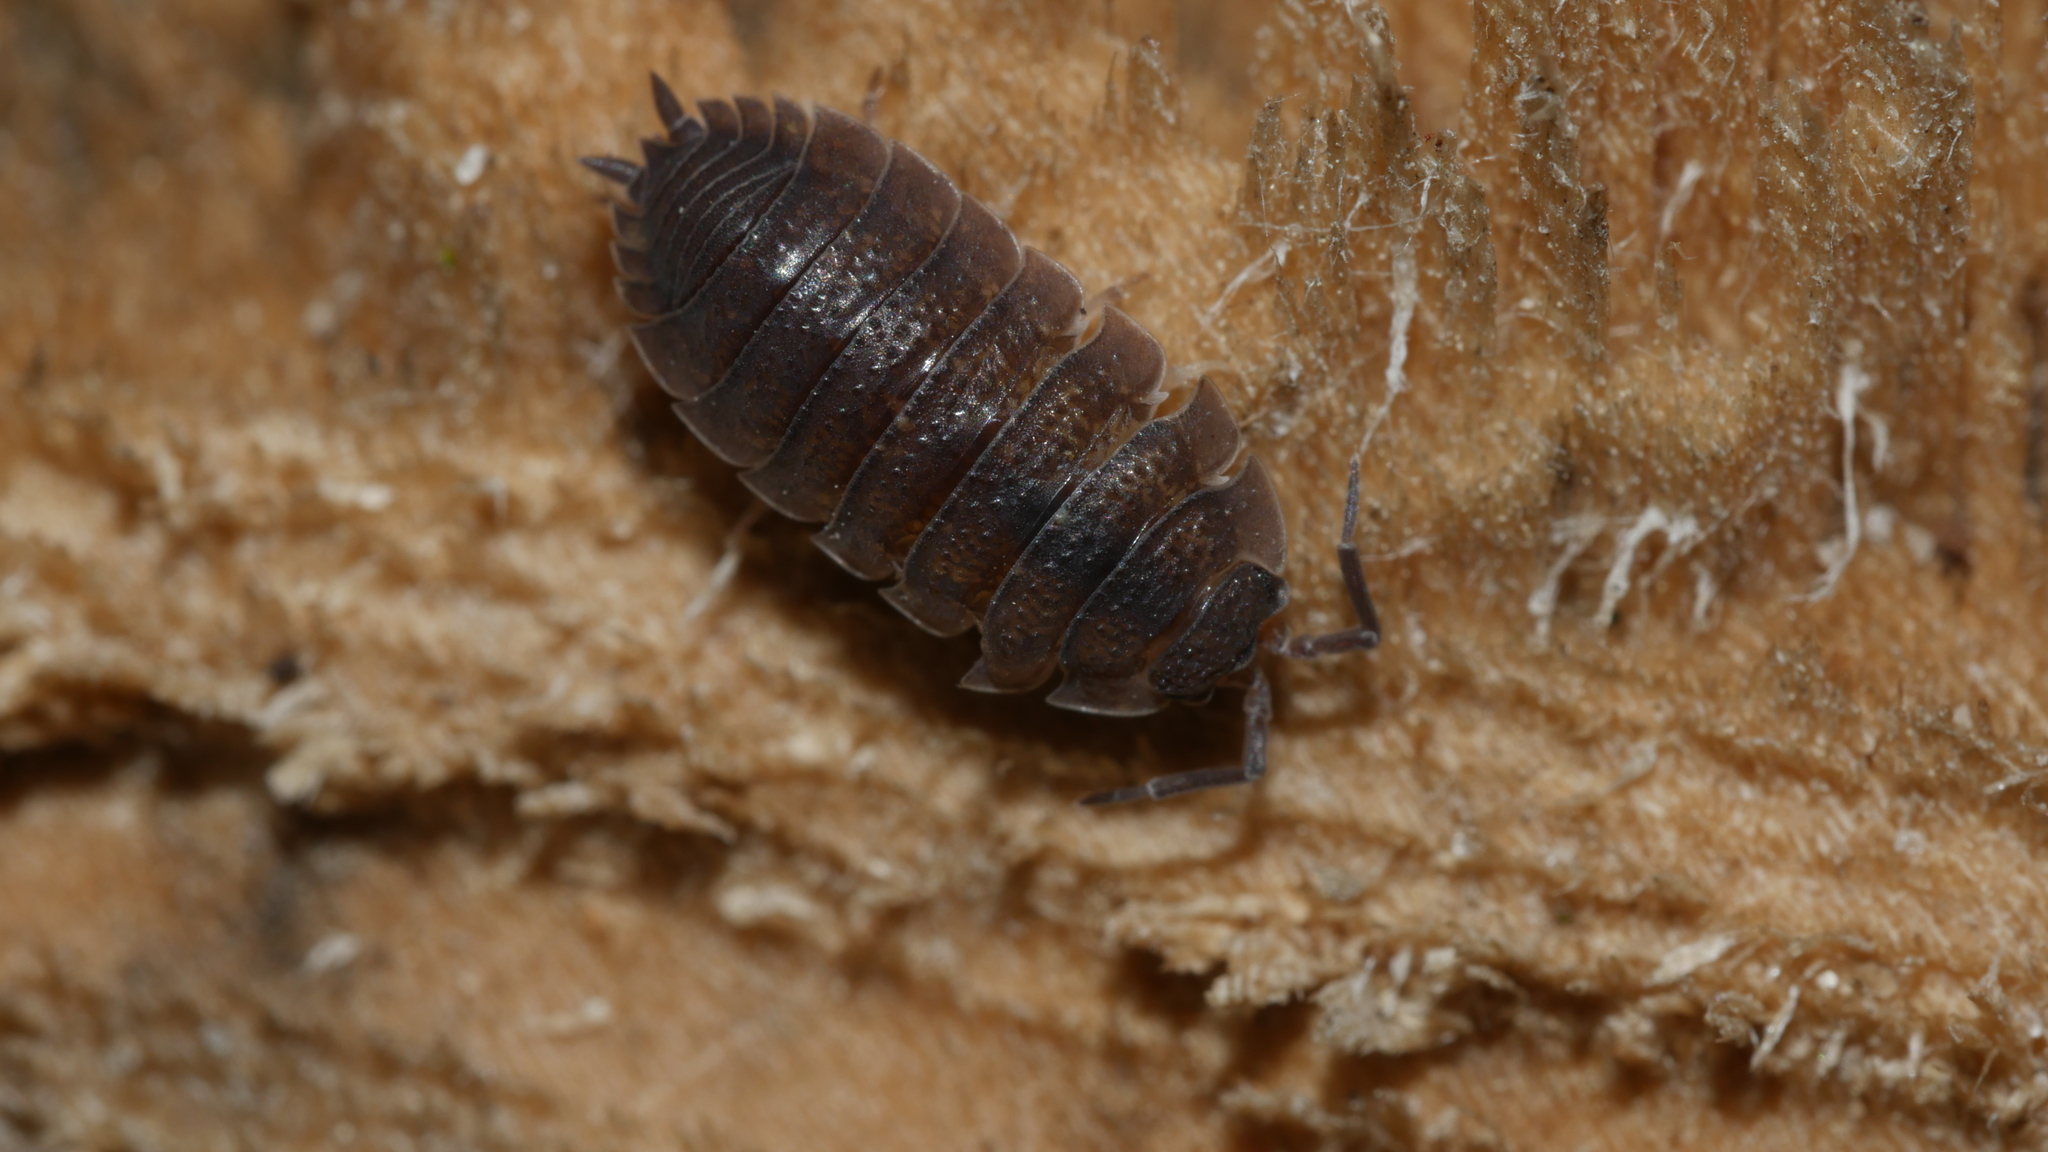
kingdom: Animalia
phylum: Arthropoda
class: Malacostraca
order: Isopoda
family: Porcellionidae
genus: Porcellio
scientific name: Porcellio scaber
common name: Common rough woodlouse
